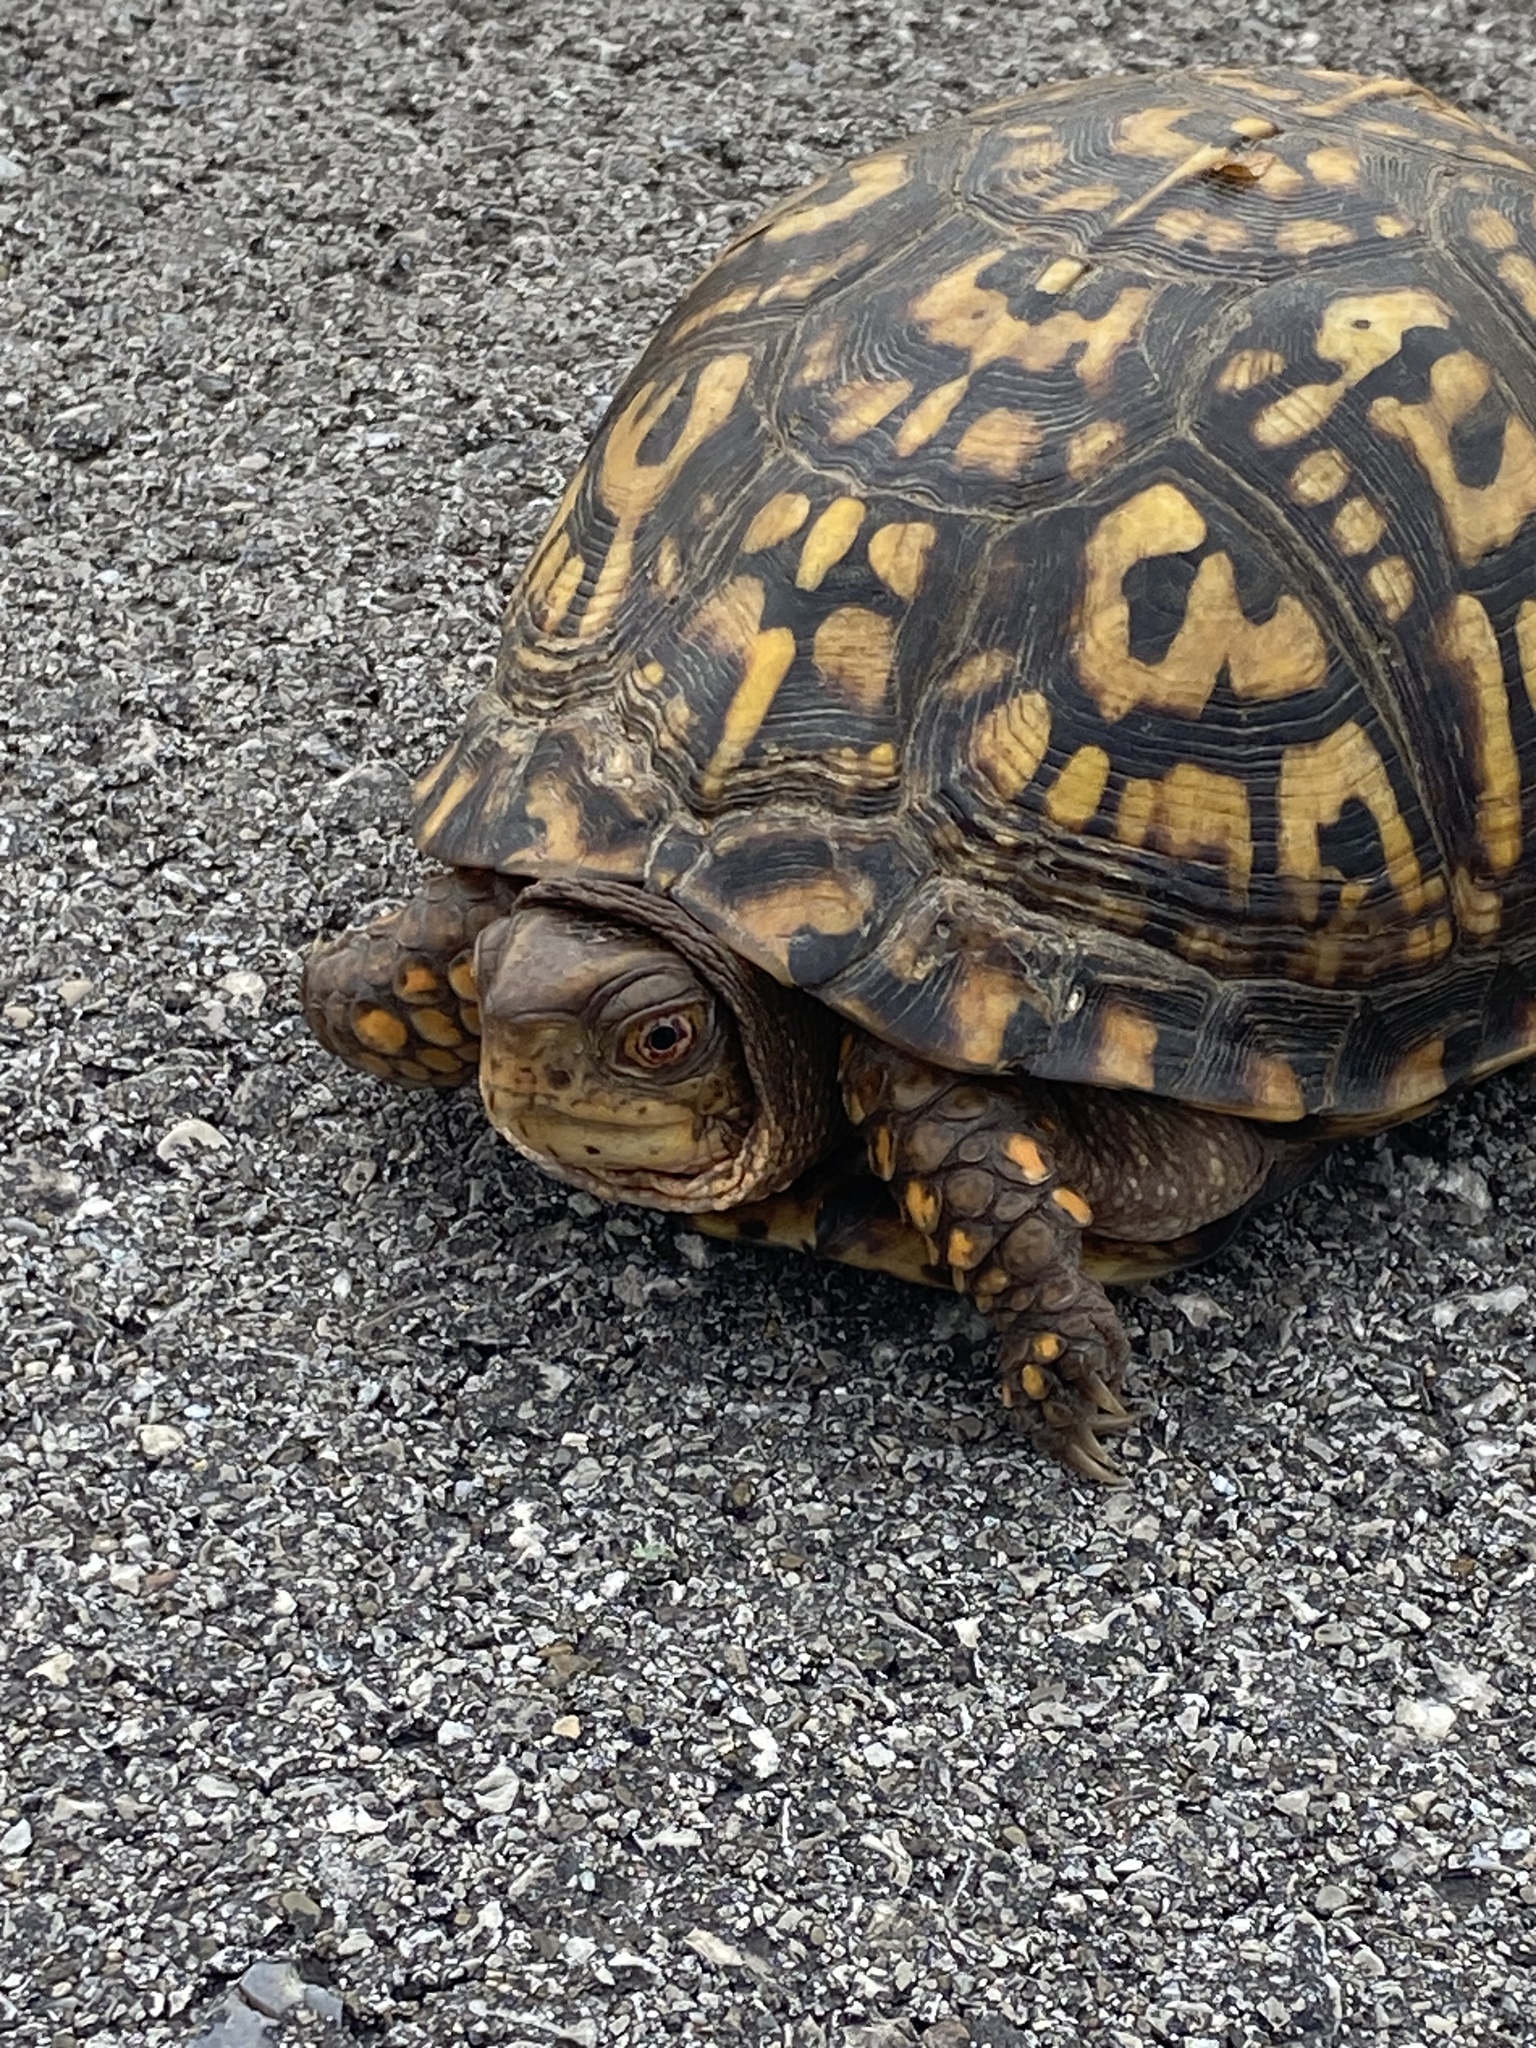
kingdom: Animalia
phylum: Chordata
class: Testudines
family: Emydidae
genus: Terrapene
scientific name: Terrapene carolina
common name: Common box turtle
